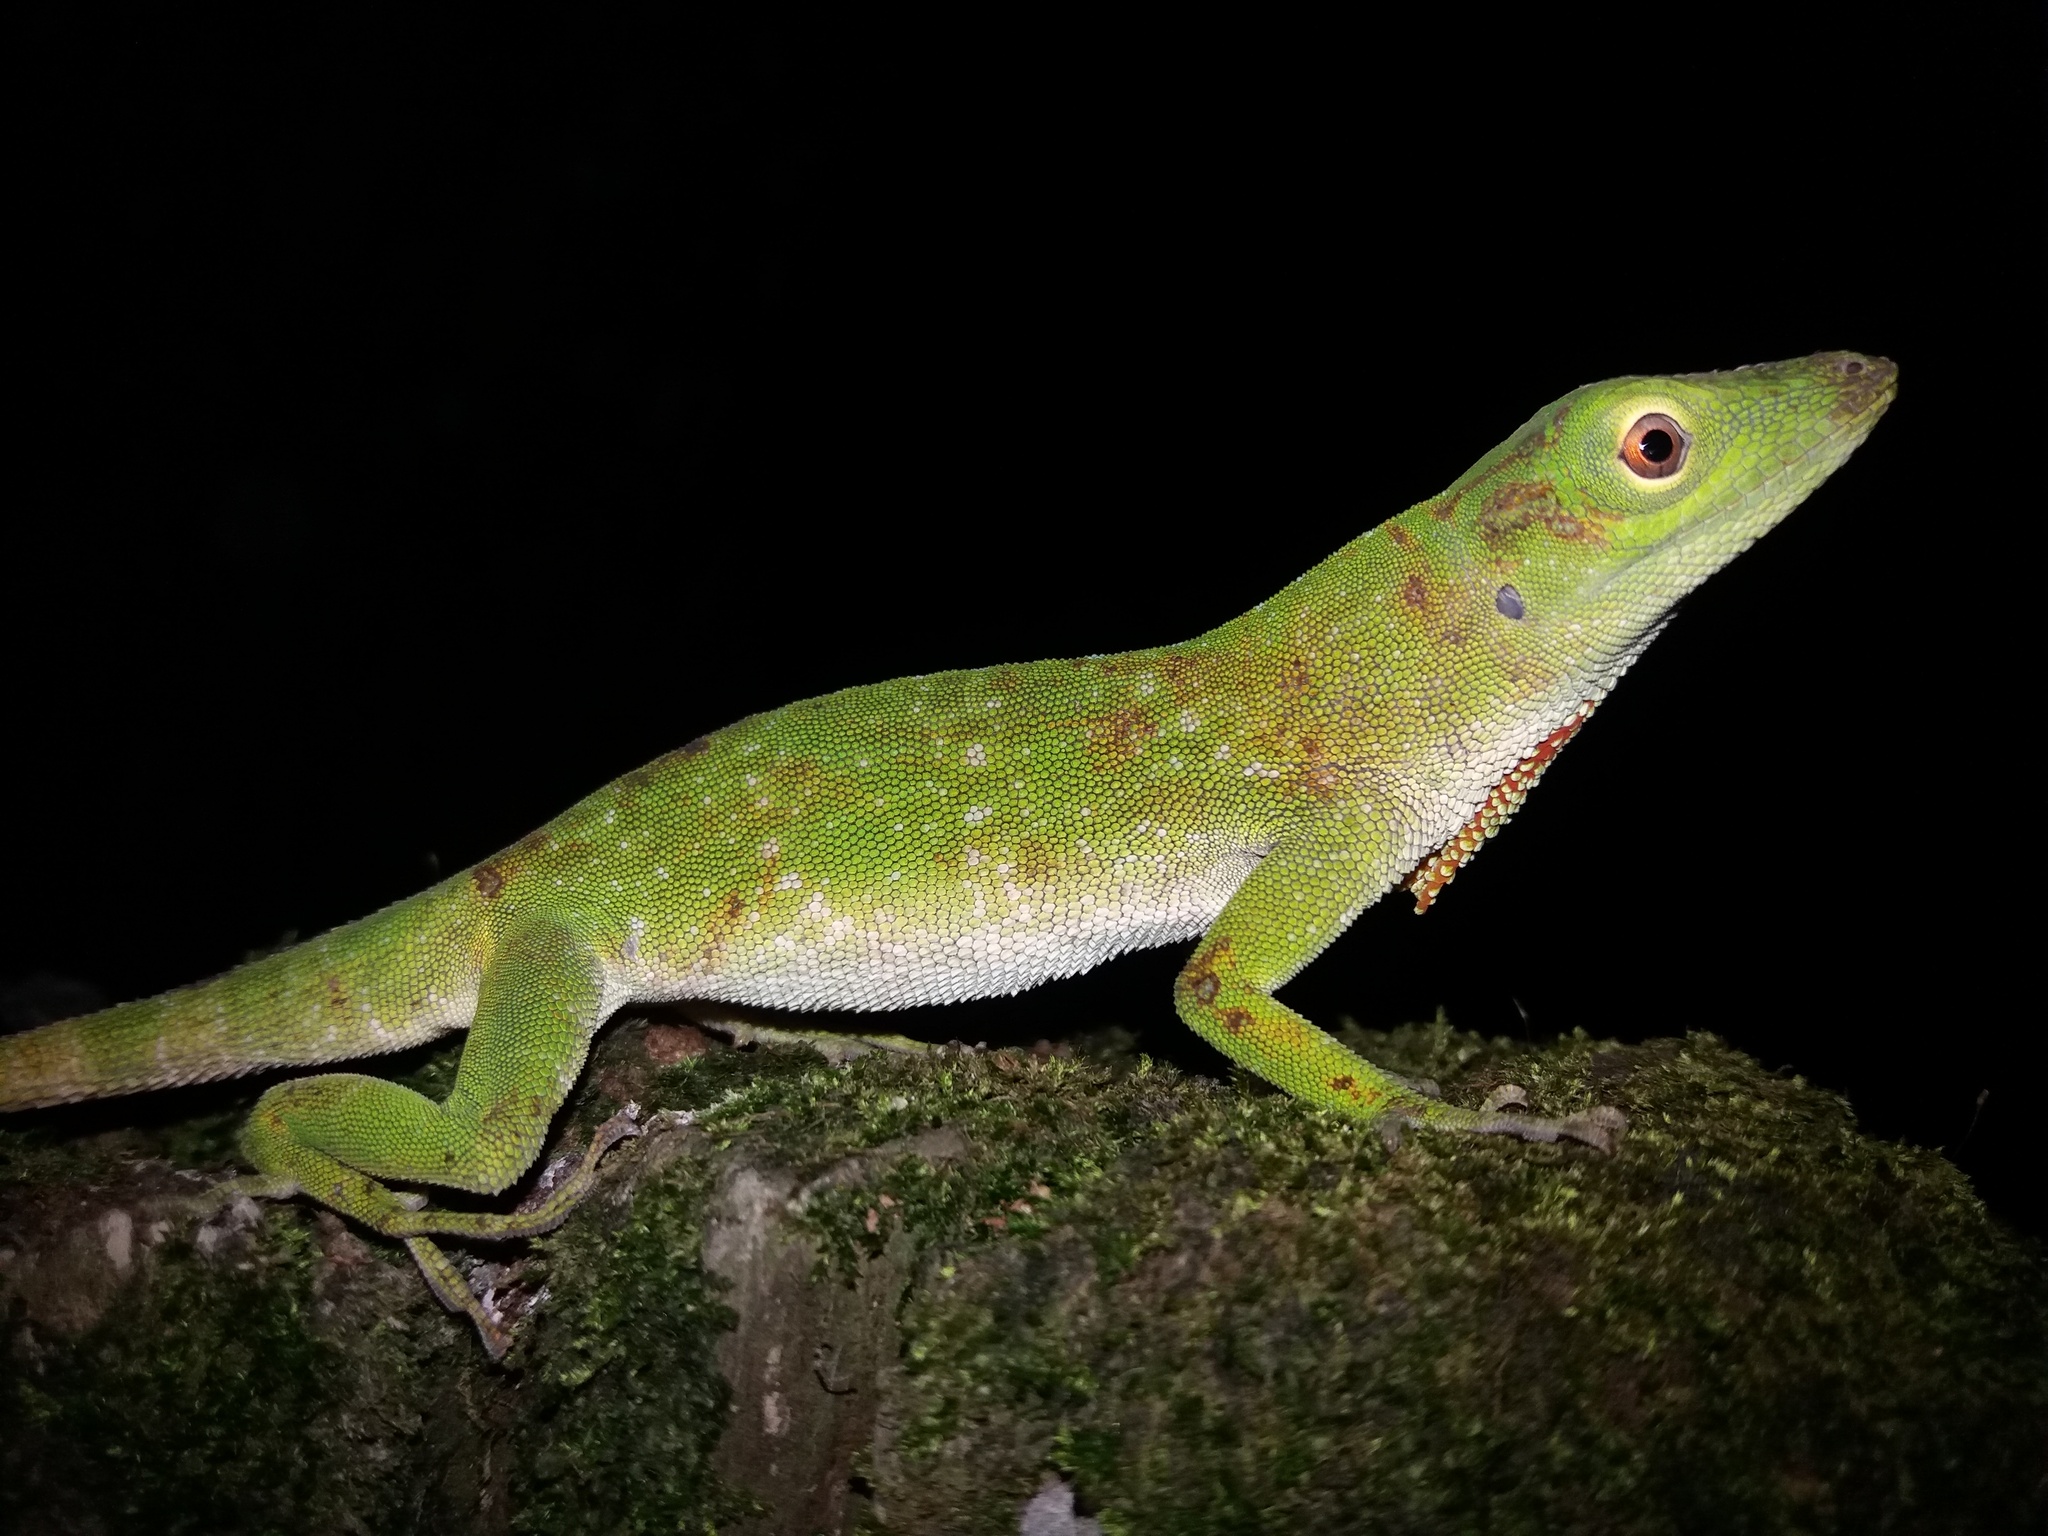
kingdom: Animalia
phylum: Chordata
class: Squamata
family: Dactyloidae
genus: Anolis
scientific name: Anolis biporcatus
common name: Giant green anole
